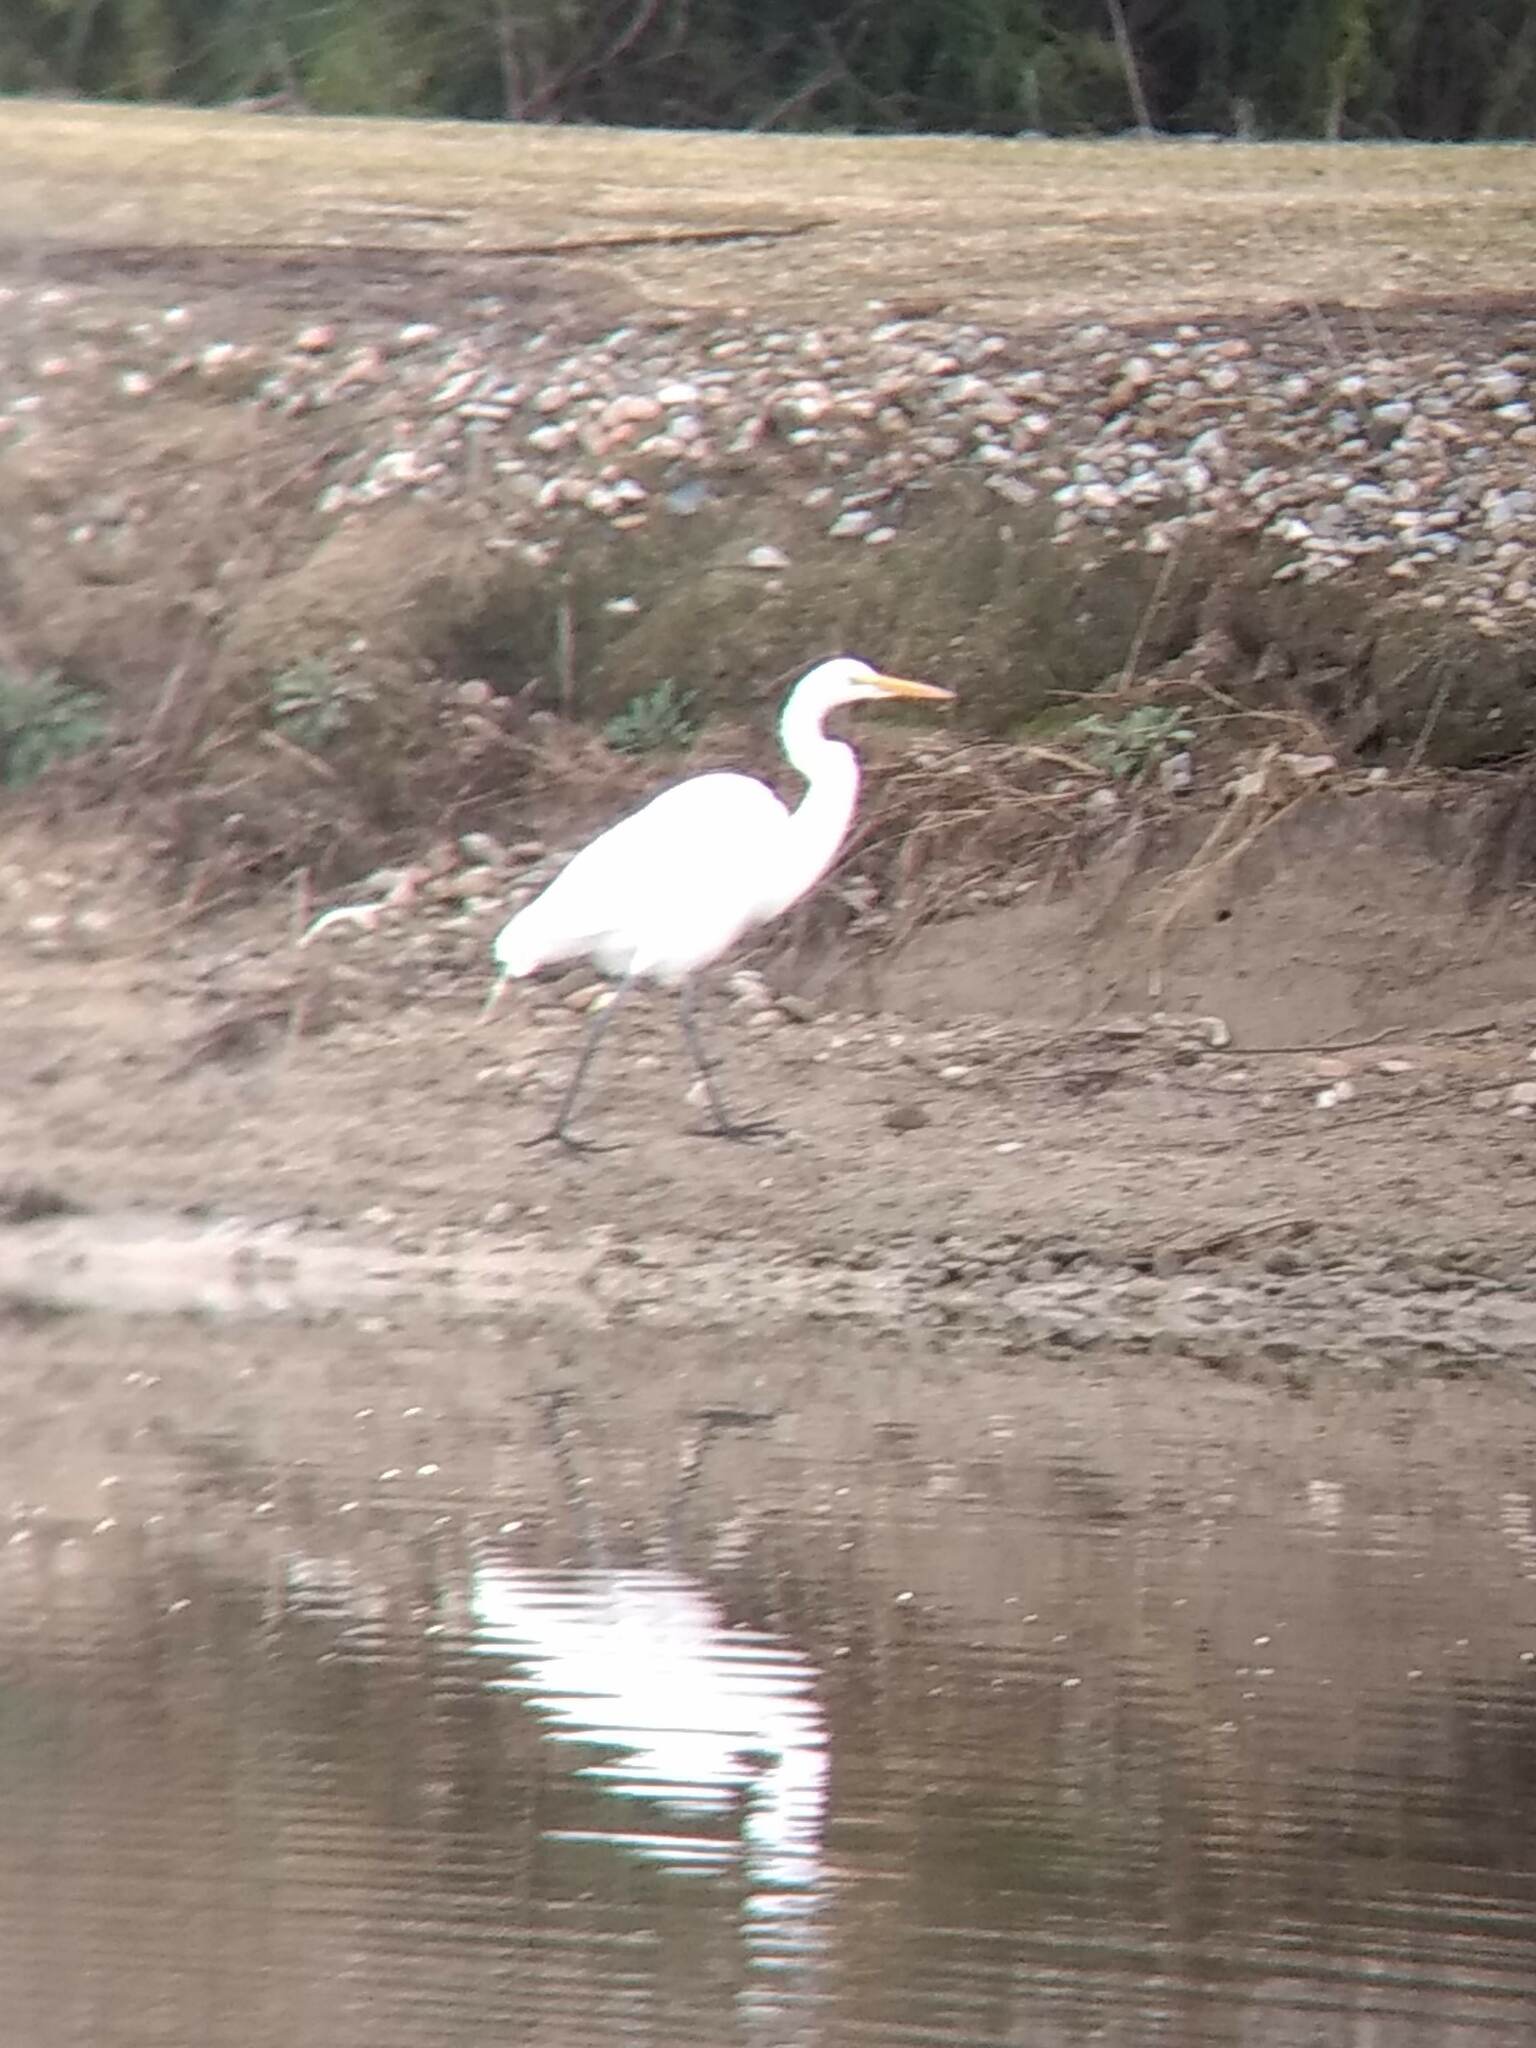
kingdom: Animalia
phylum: Chordata
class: Aves
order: Pelecaniformes
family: Ardeidae
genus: Ardea
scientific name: Ardea alba
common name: Great egret
